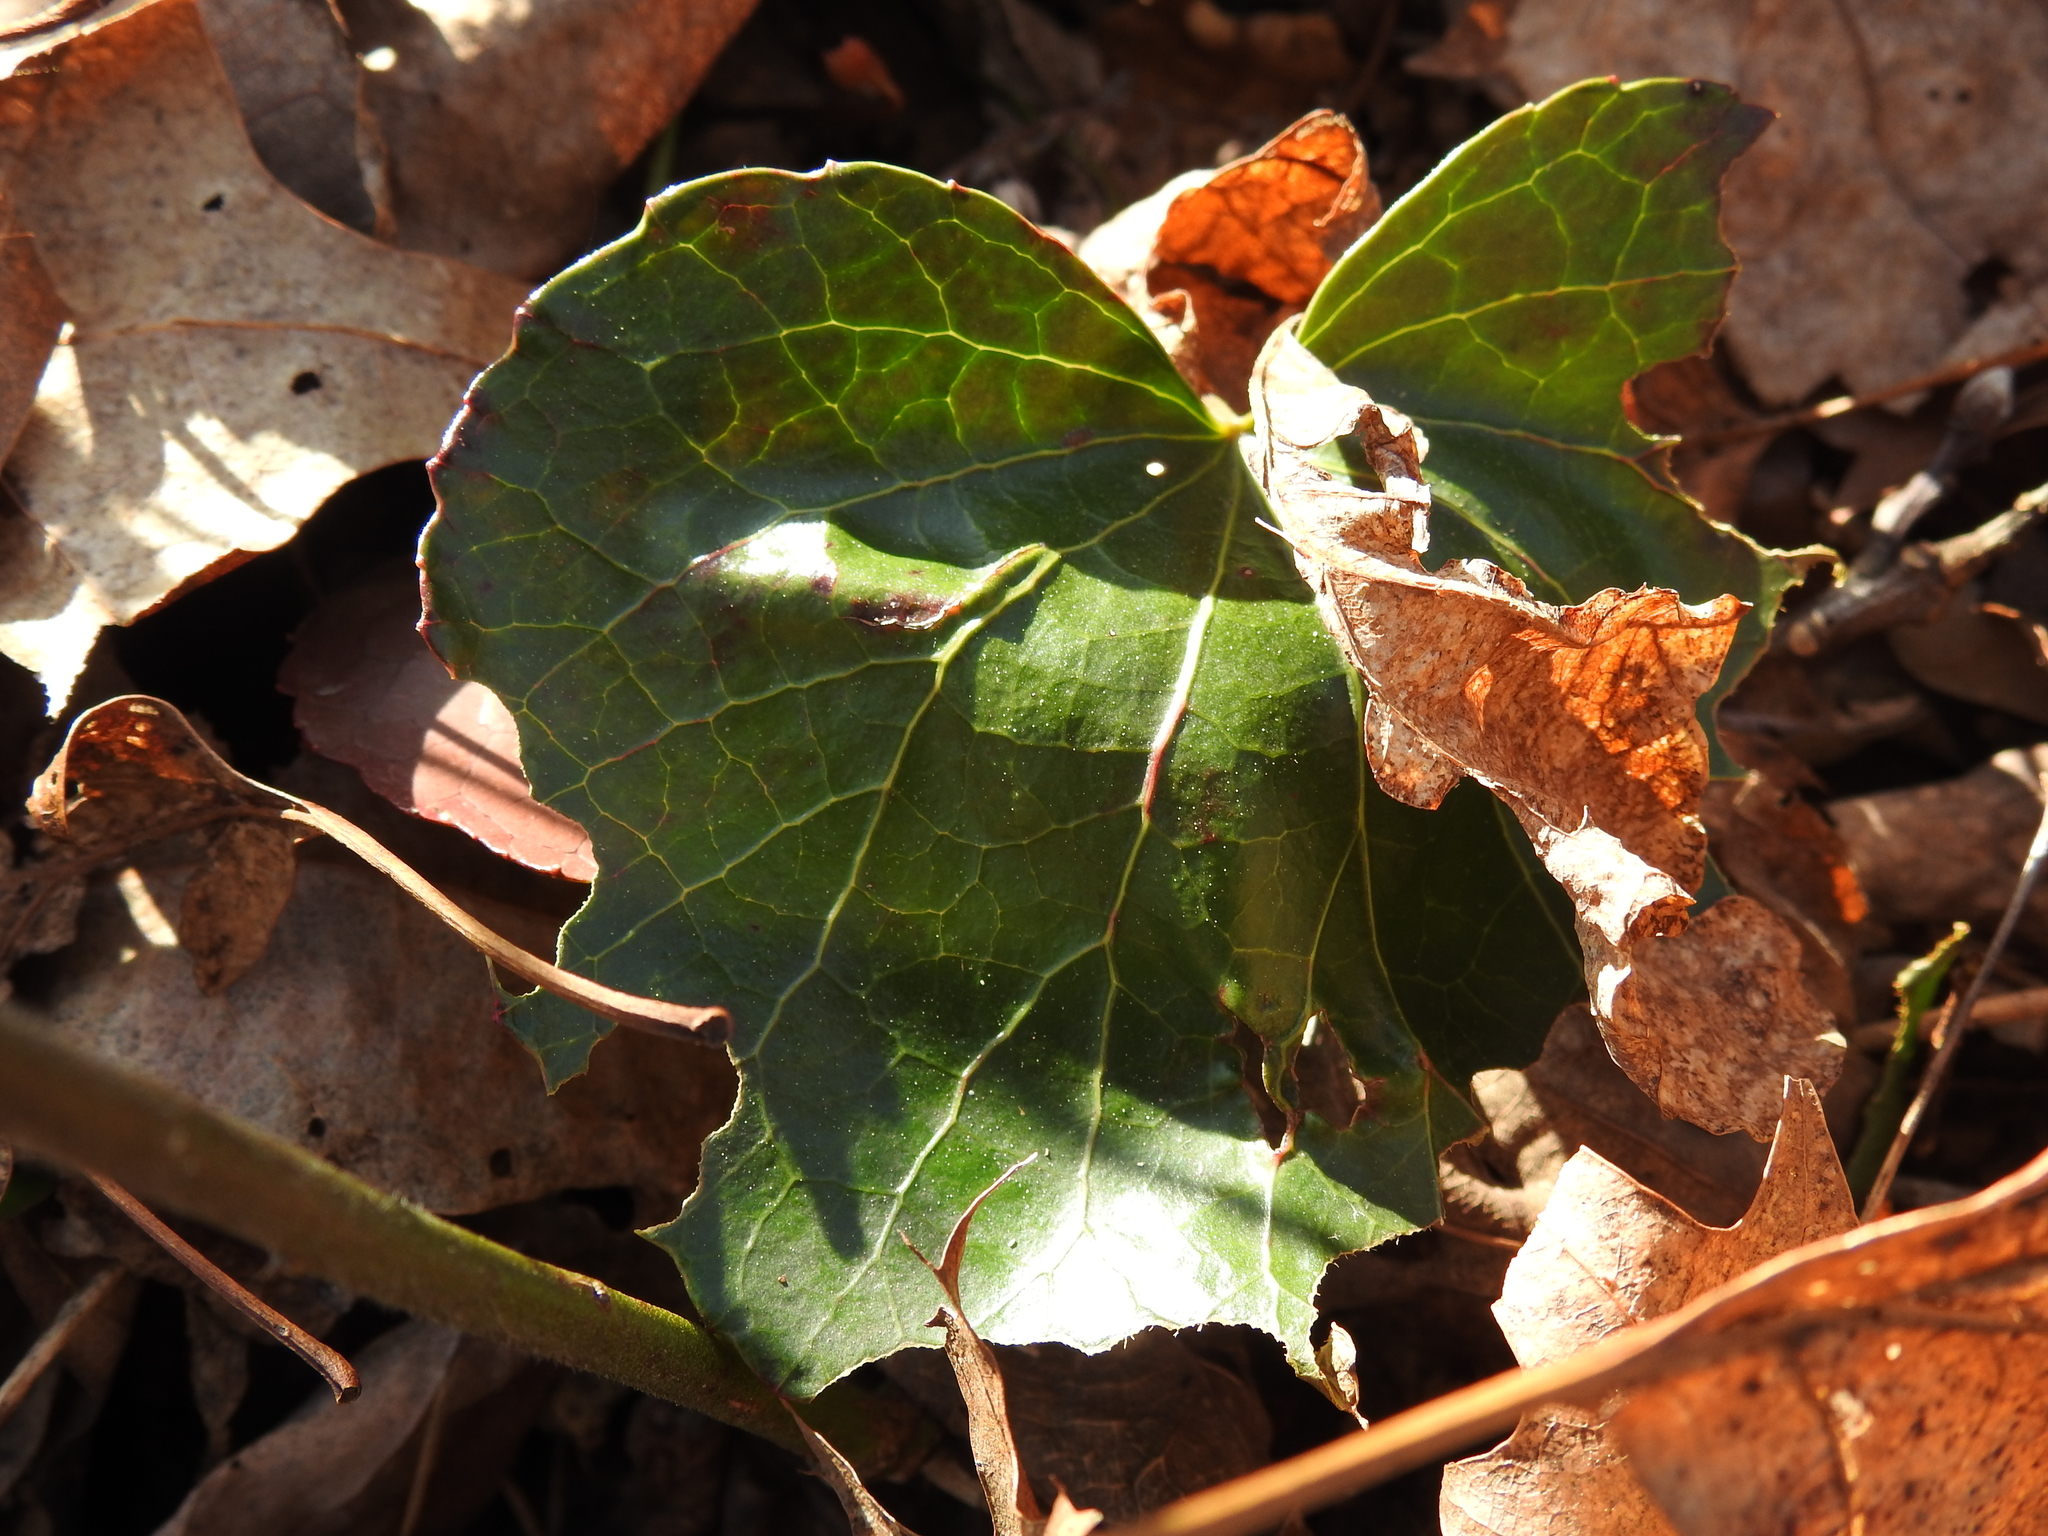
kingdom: Plantae
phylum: Tracheophyta
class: Magnoliopsida
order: Ericales
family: Diapensiaceae
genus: Galax
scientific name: Galax urceolata
